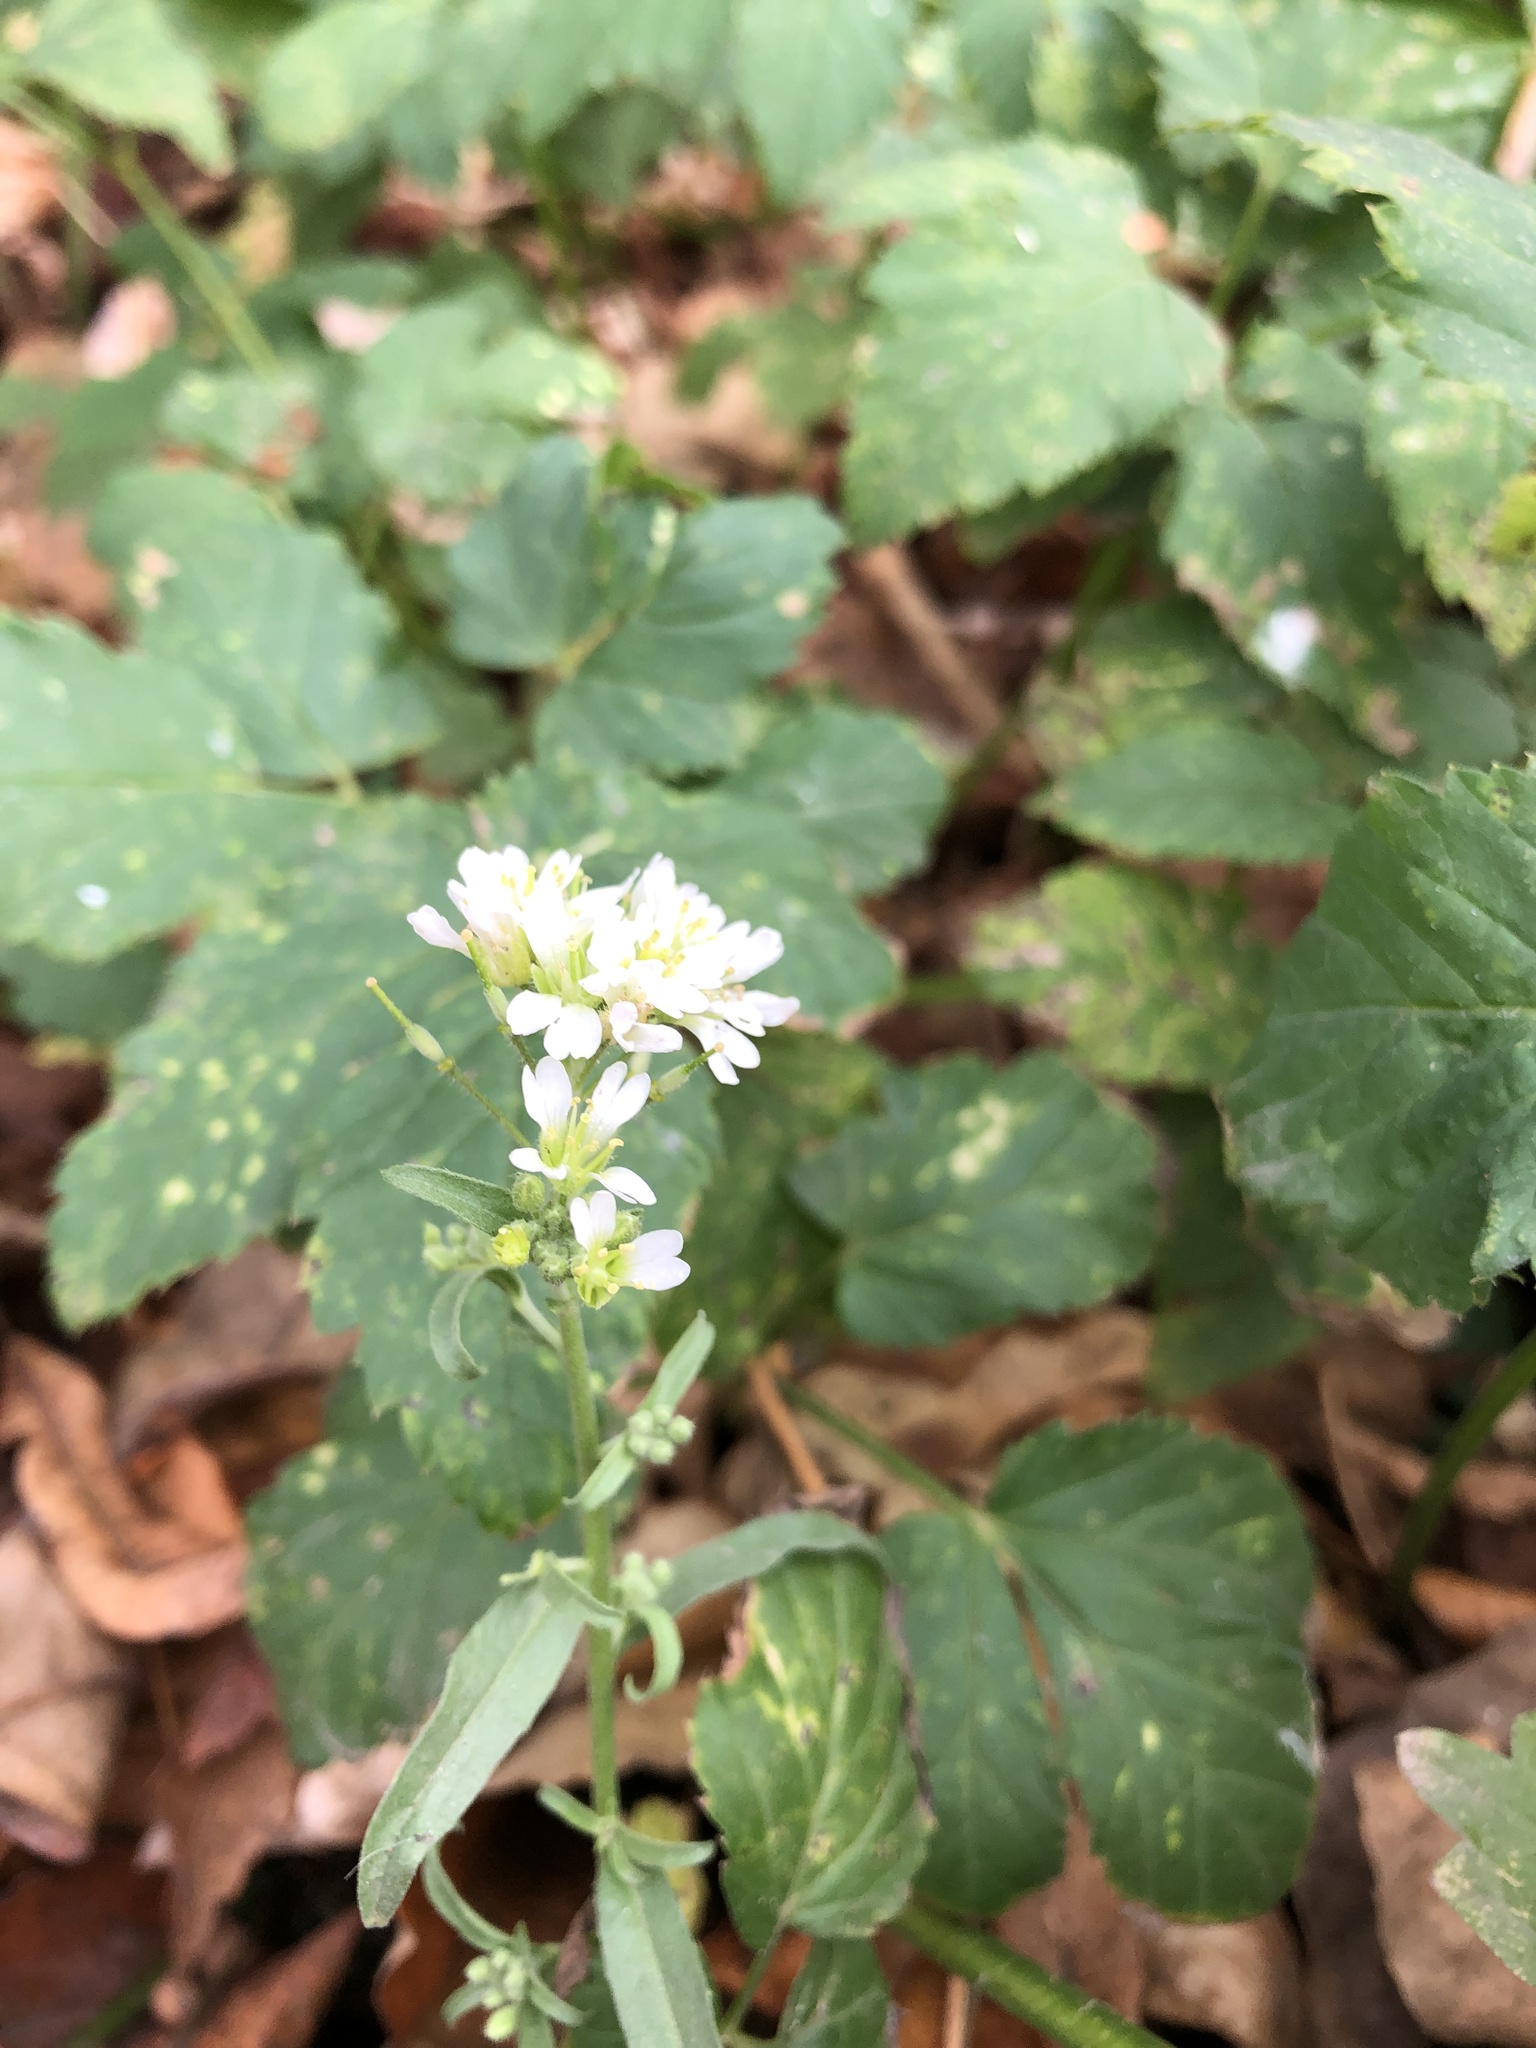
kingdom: Plantae
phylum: Tracheophyta
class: Magnoliopsida
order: Brassicales
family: Brassicaceae
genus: Berteroa
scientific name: Berteroa incana
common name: Hoary alison
